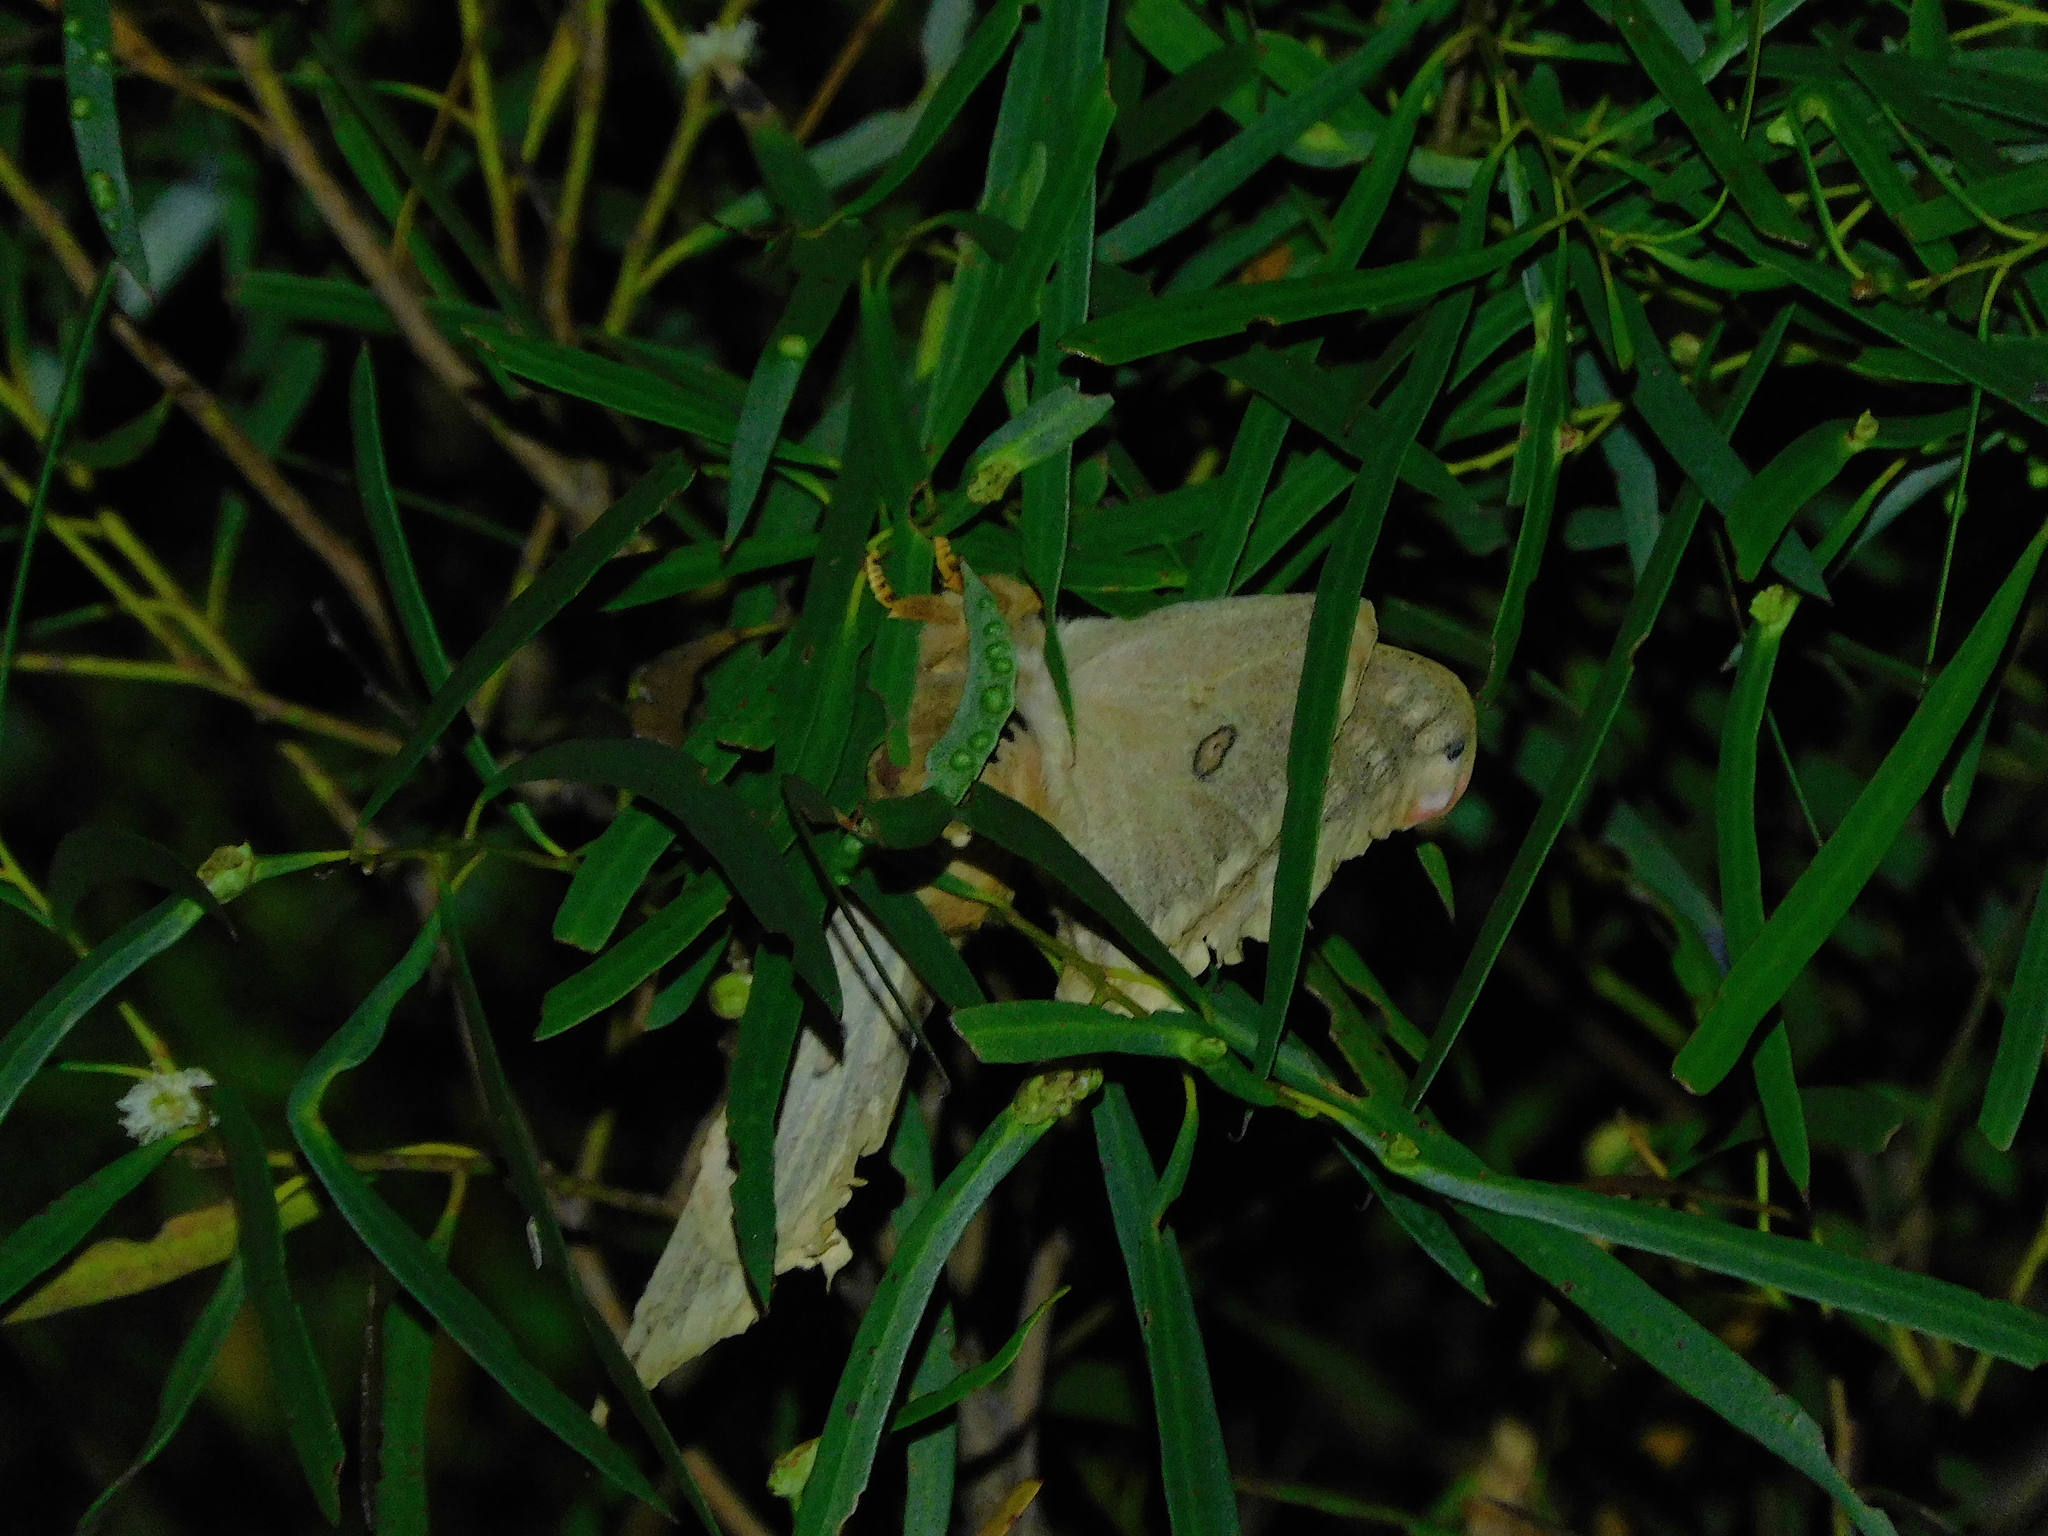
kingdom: Animalia
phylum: Arthropoda
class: Insecta
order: Lepidoptera
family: Saturniidae
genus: Opodiphthera
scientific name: Opodiphthera
